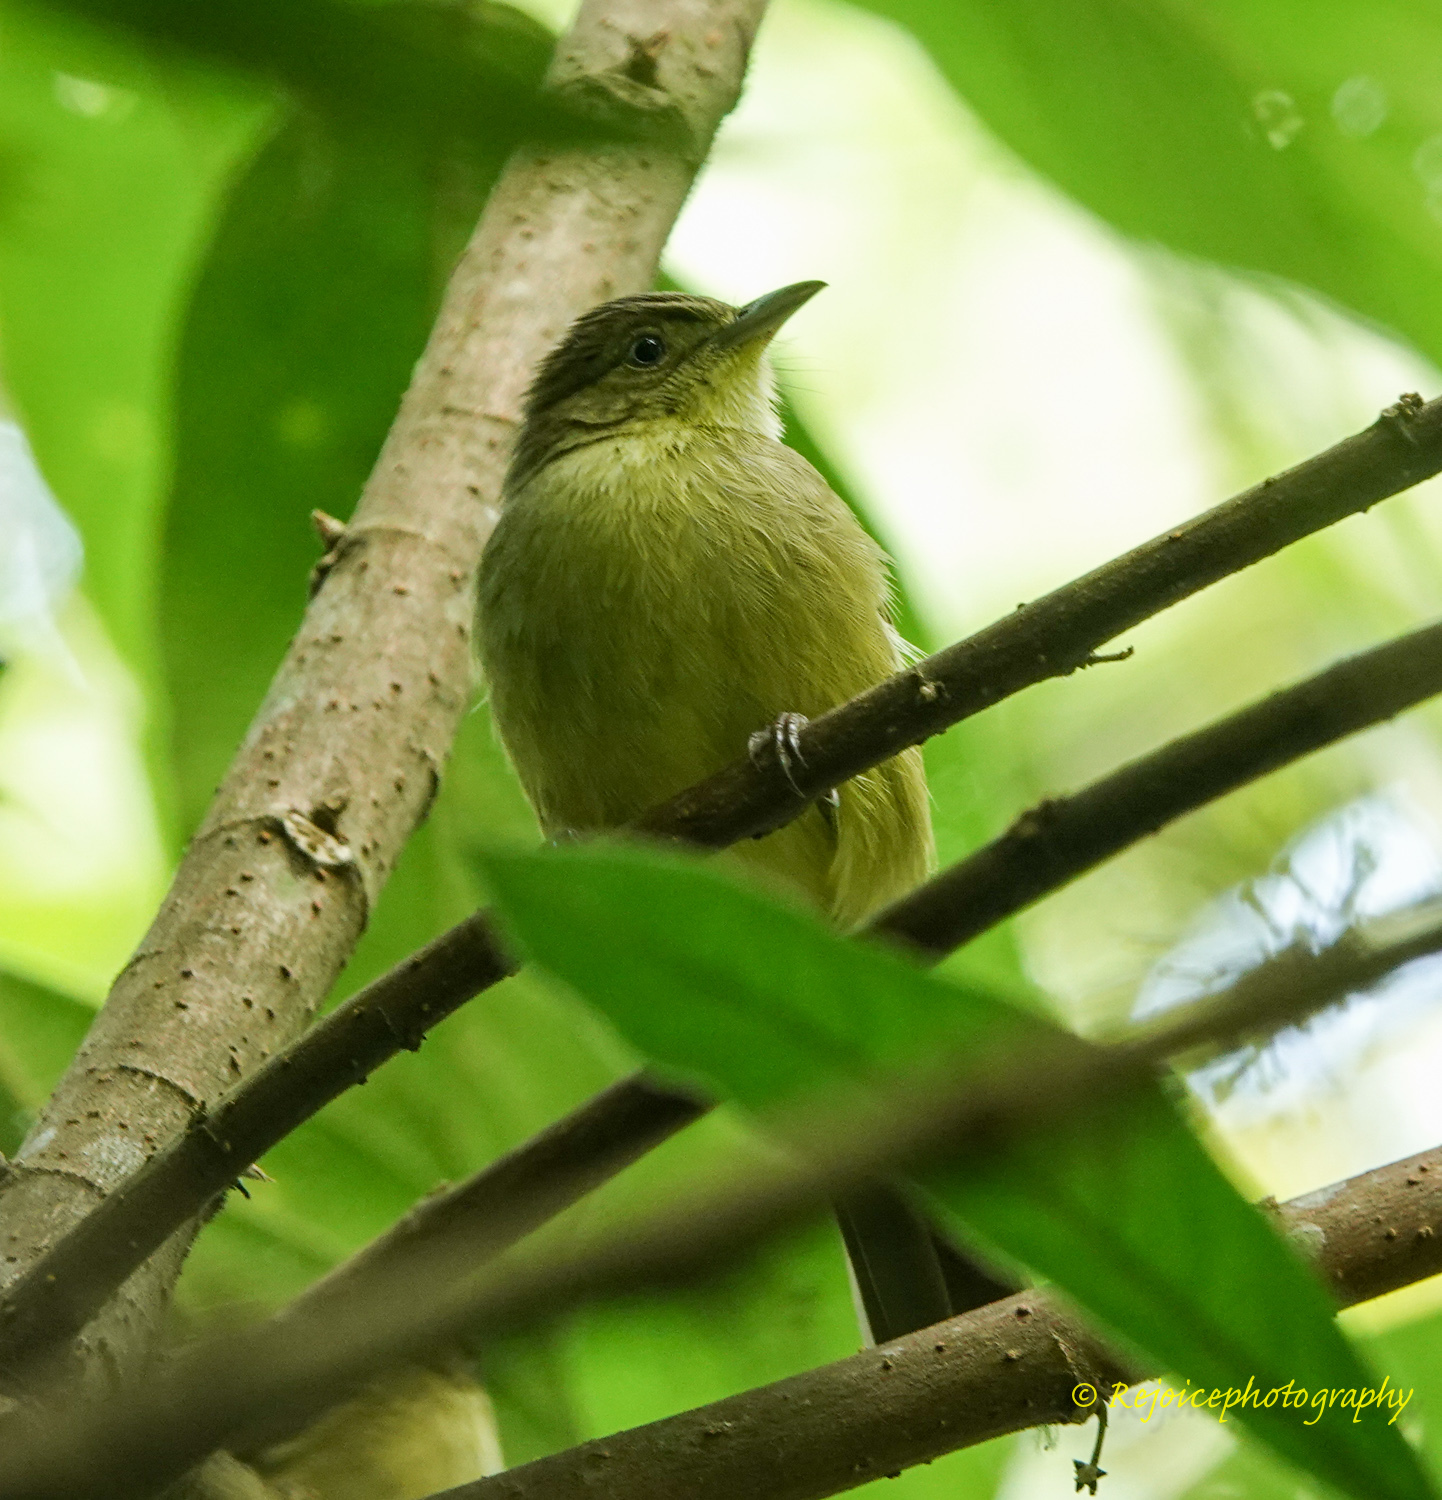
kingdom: Animalia
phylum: Chordata
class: Aves
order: Passeriformes
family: Pycnonotidae
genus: Iole
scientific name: Iole virescens
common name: Olive bulbul
